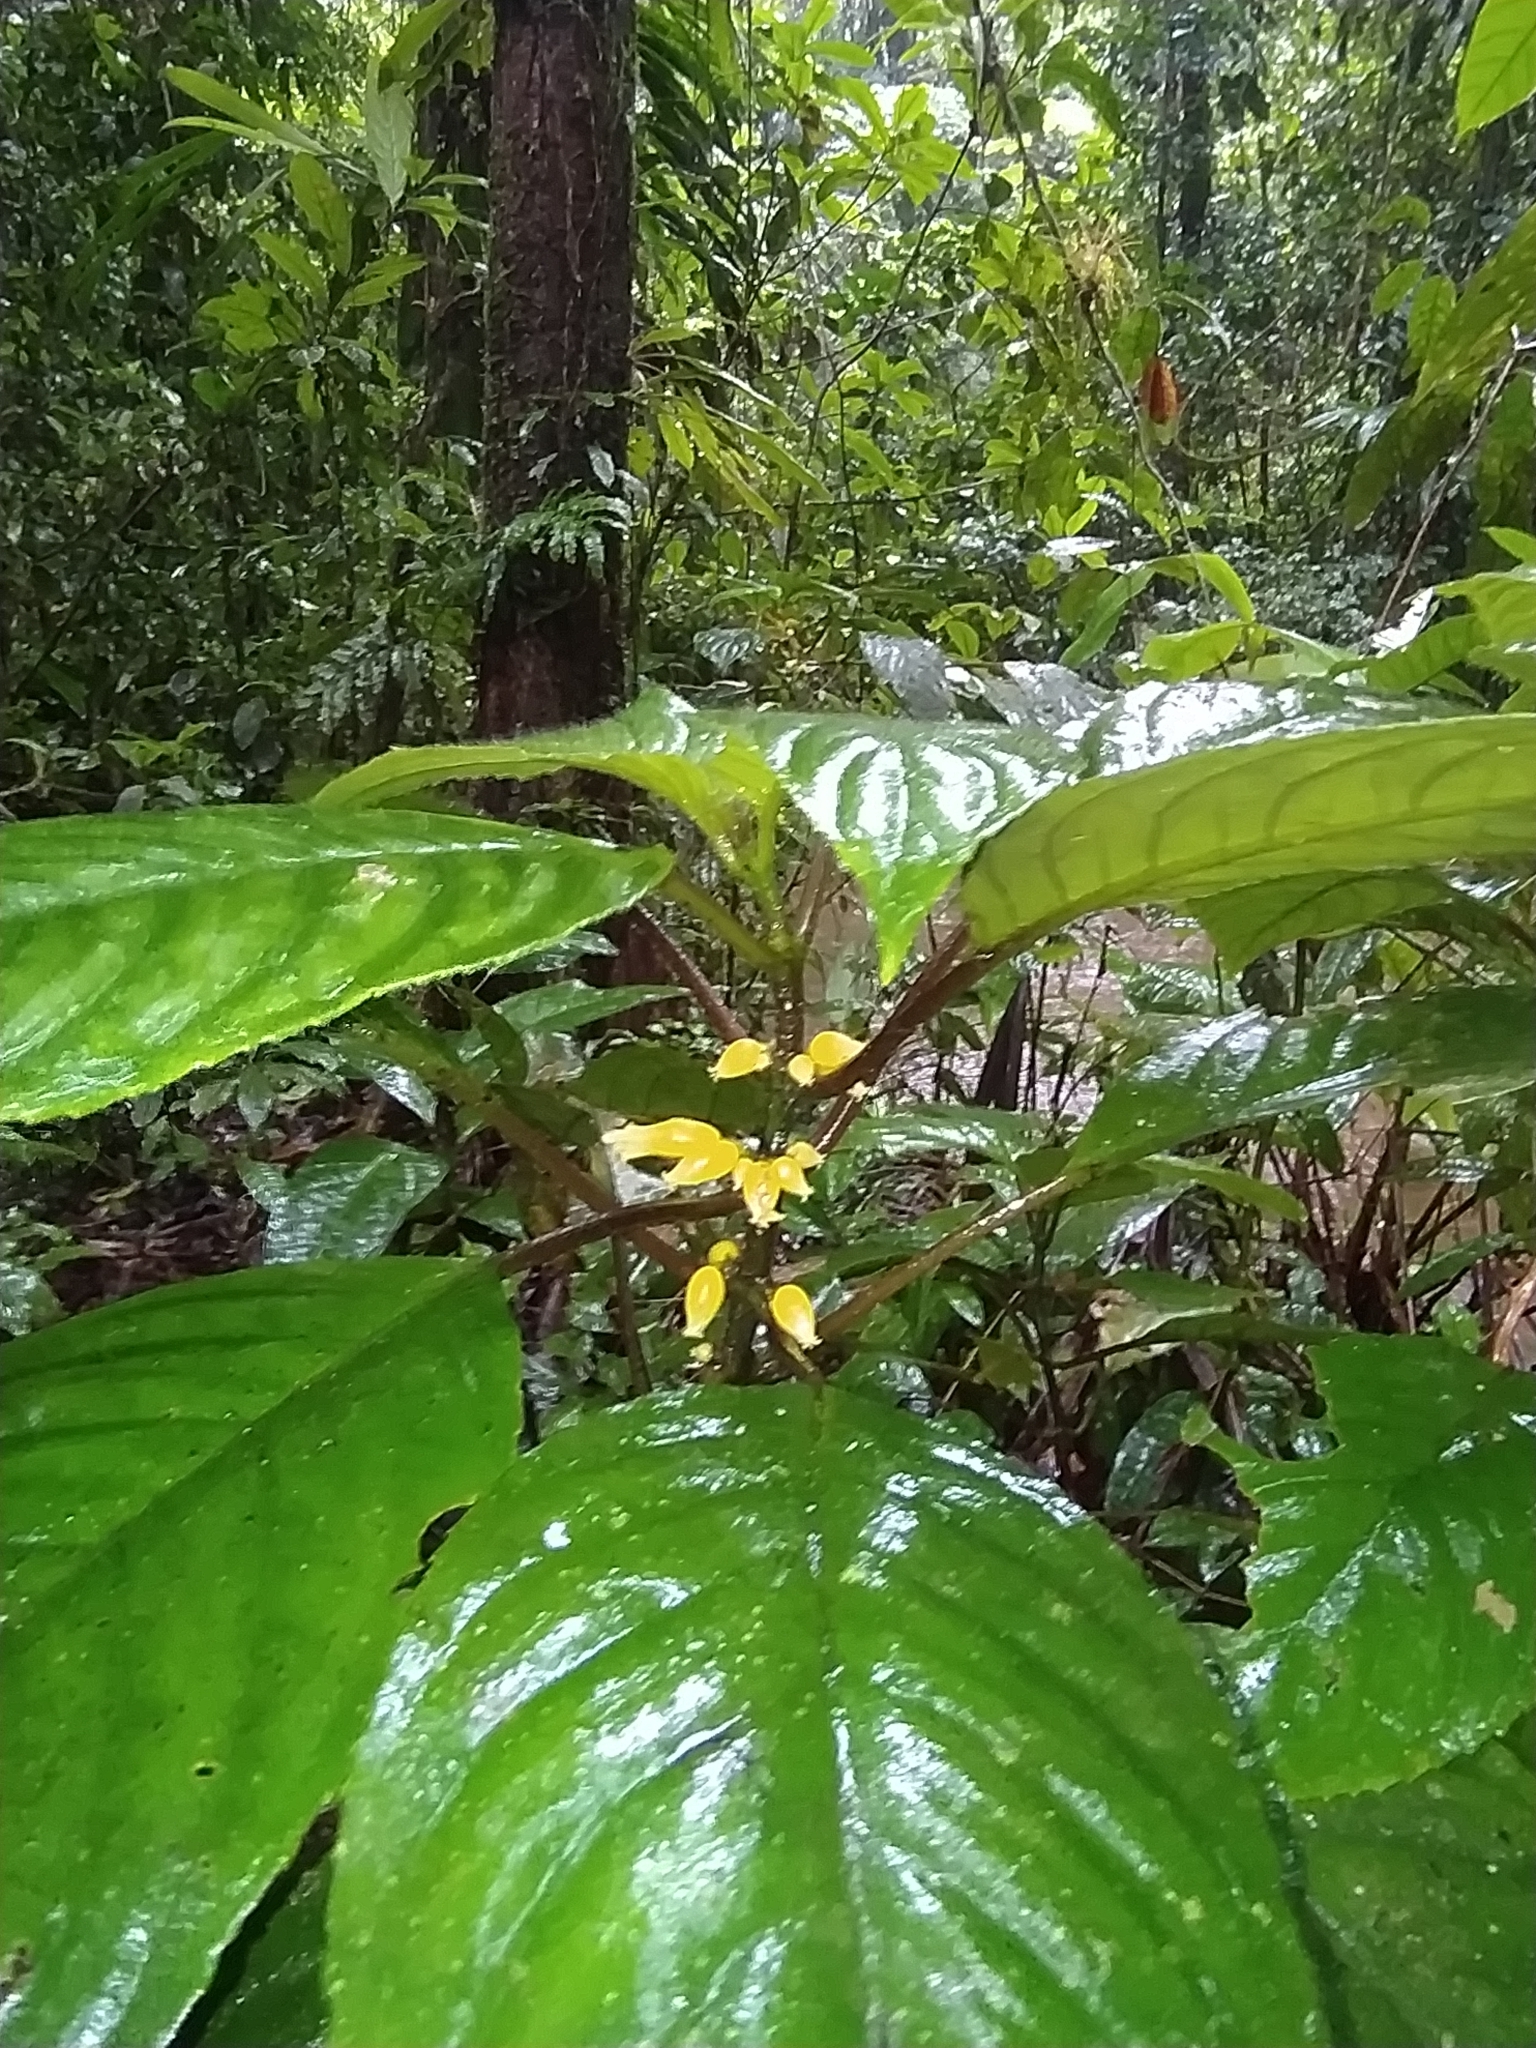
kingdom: Plantae
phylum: Tracheophyta
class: Magnoliopsida
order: Lamiales
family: Gesneriaceae
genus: Besleria
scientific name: Besleria insolita
